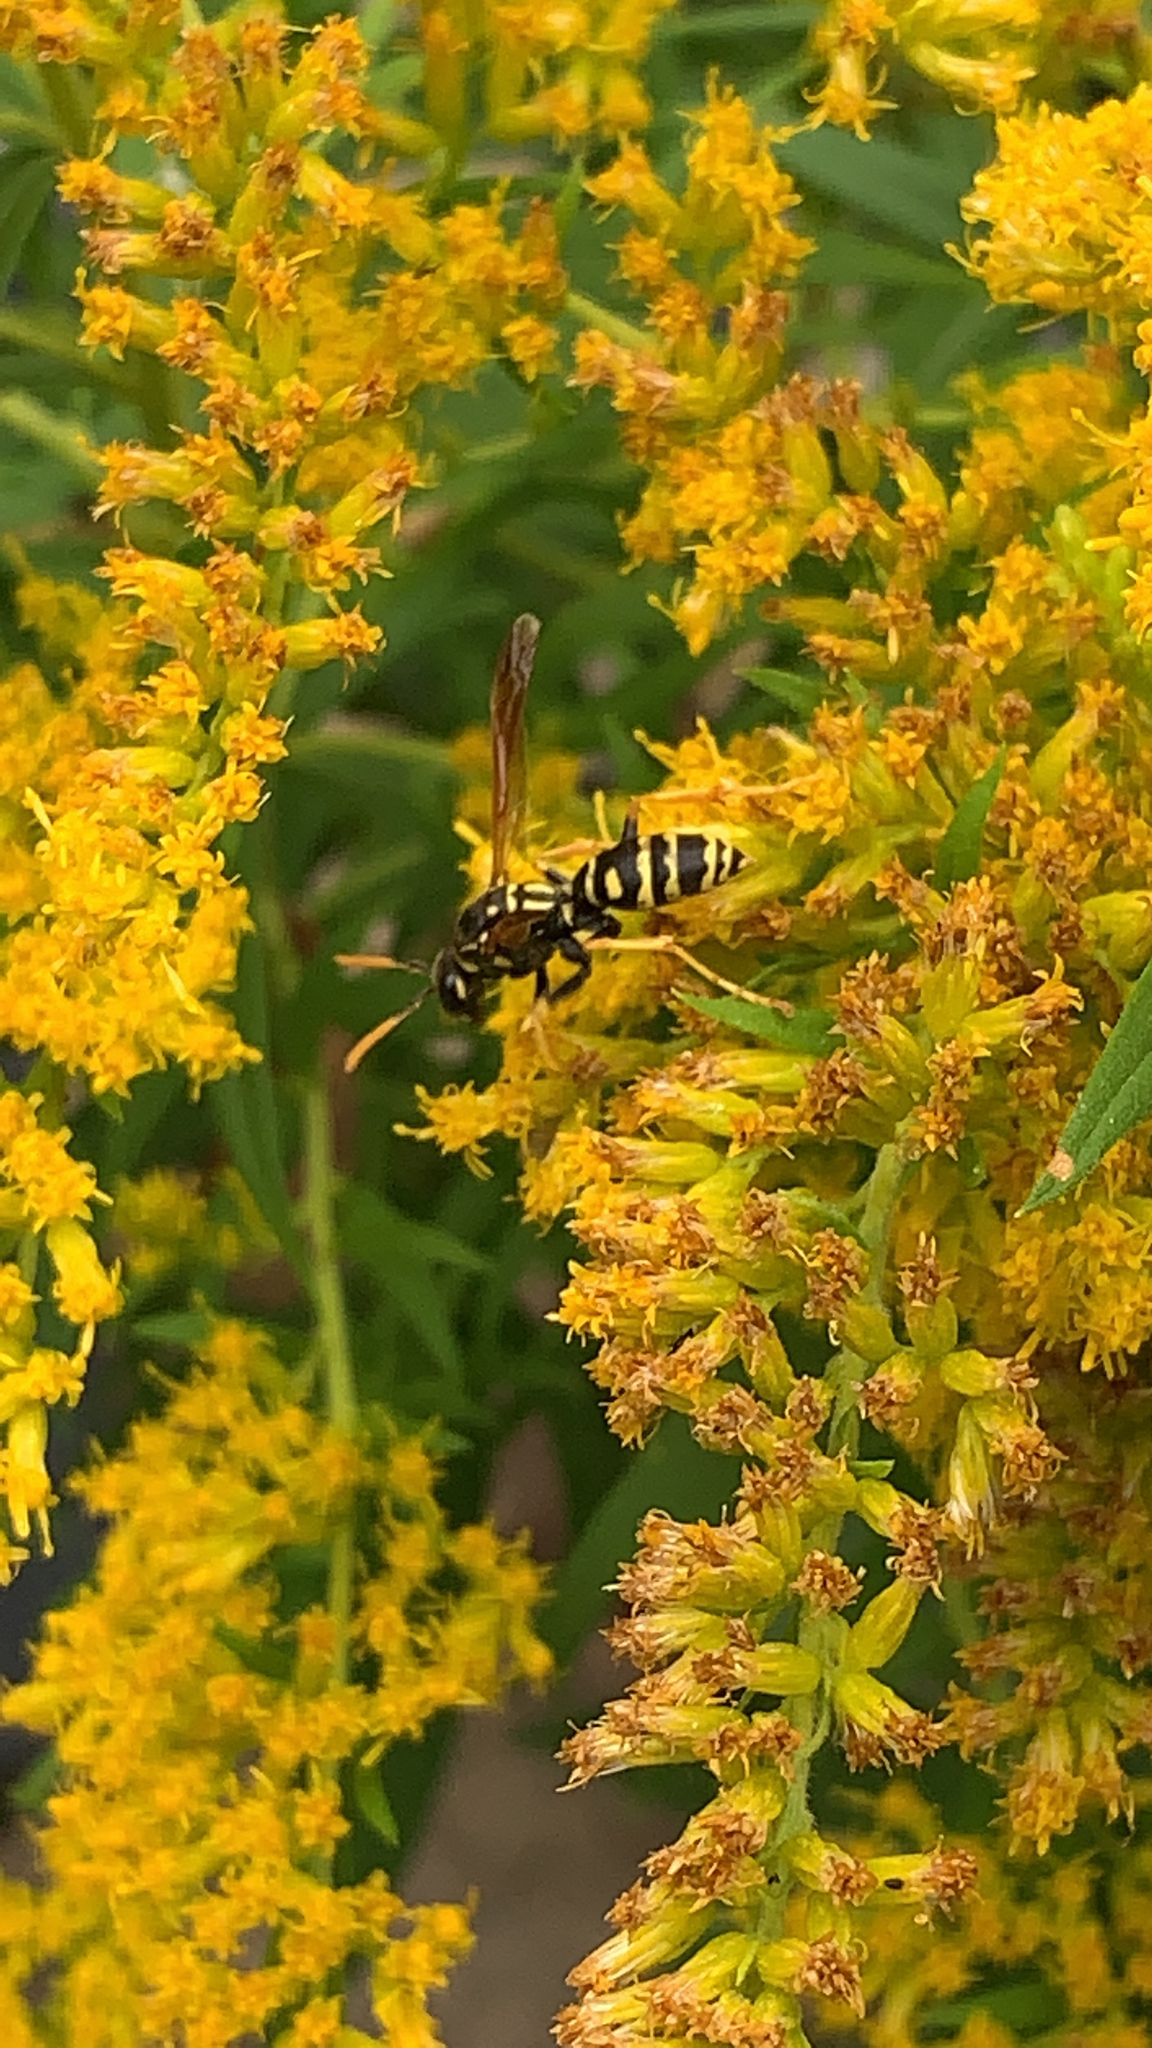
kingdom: Animalia
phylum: Arthropoda
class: Insecta
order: Hymenoptera
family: Eumenidae
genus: Polistes
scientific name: Polistes dominula
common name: Paper wasp
